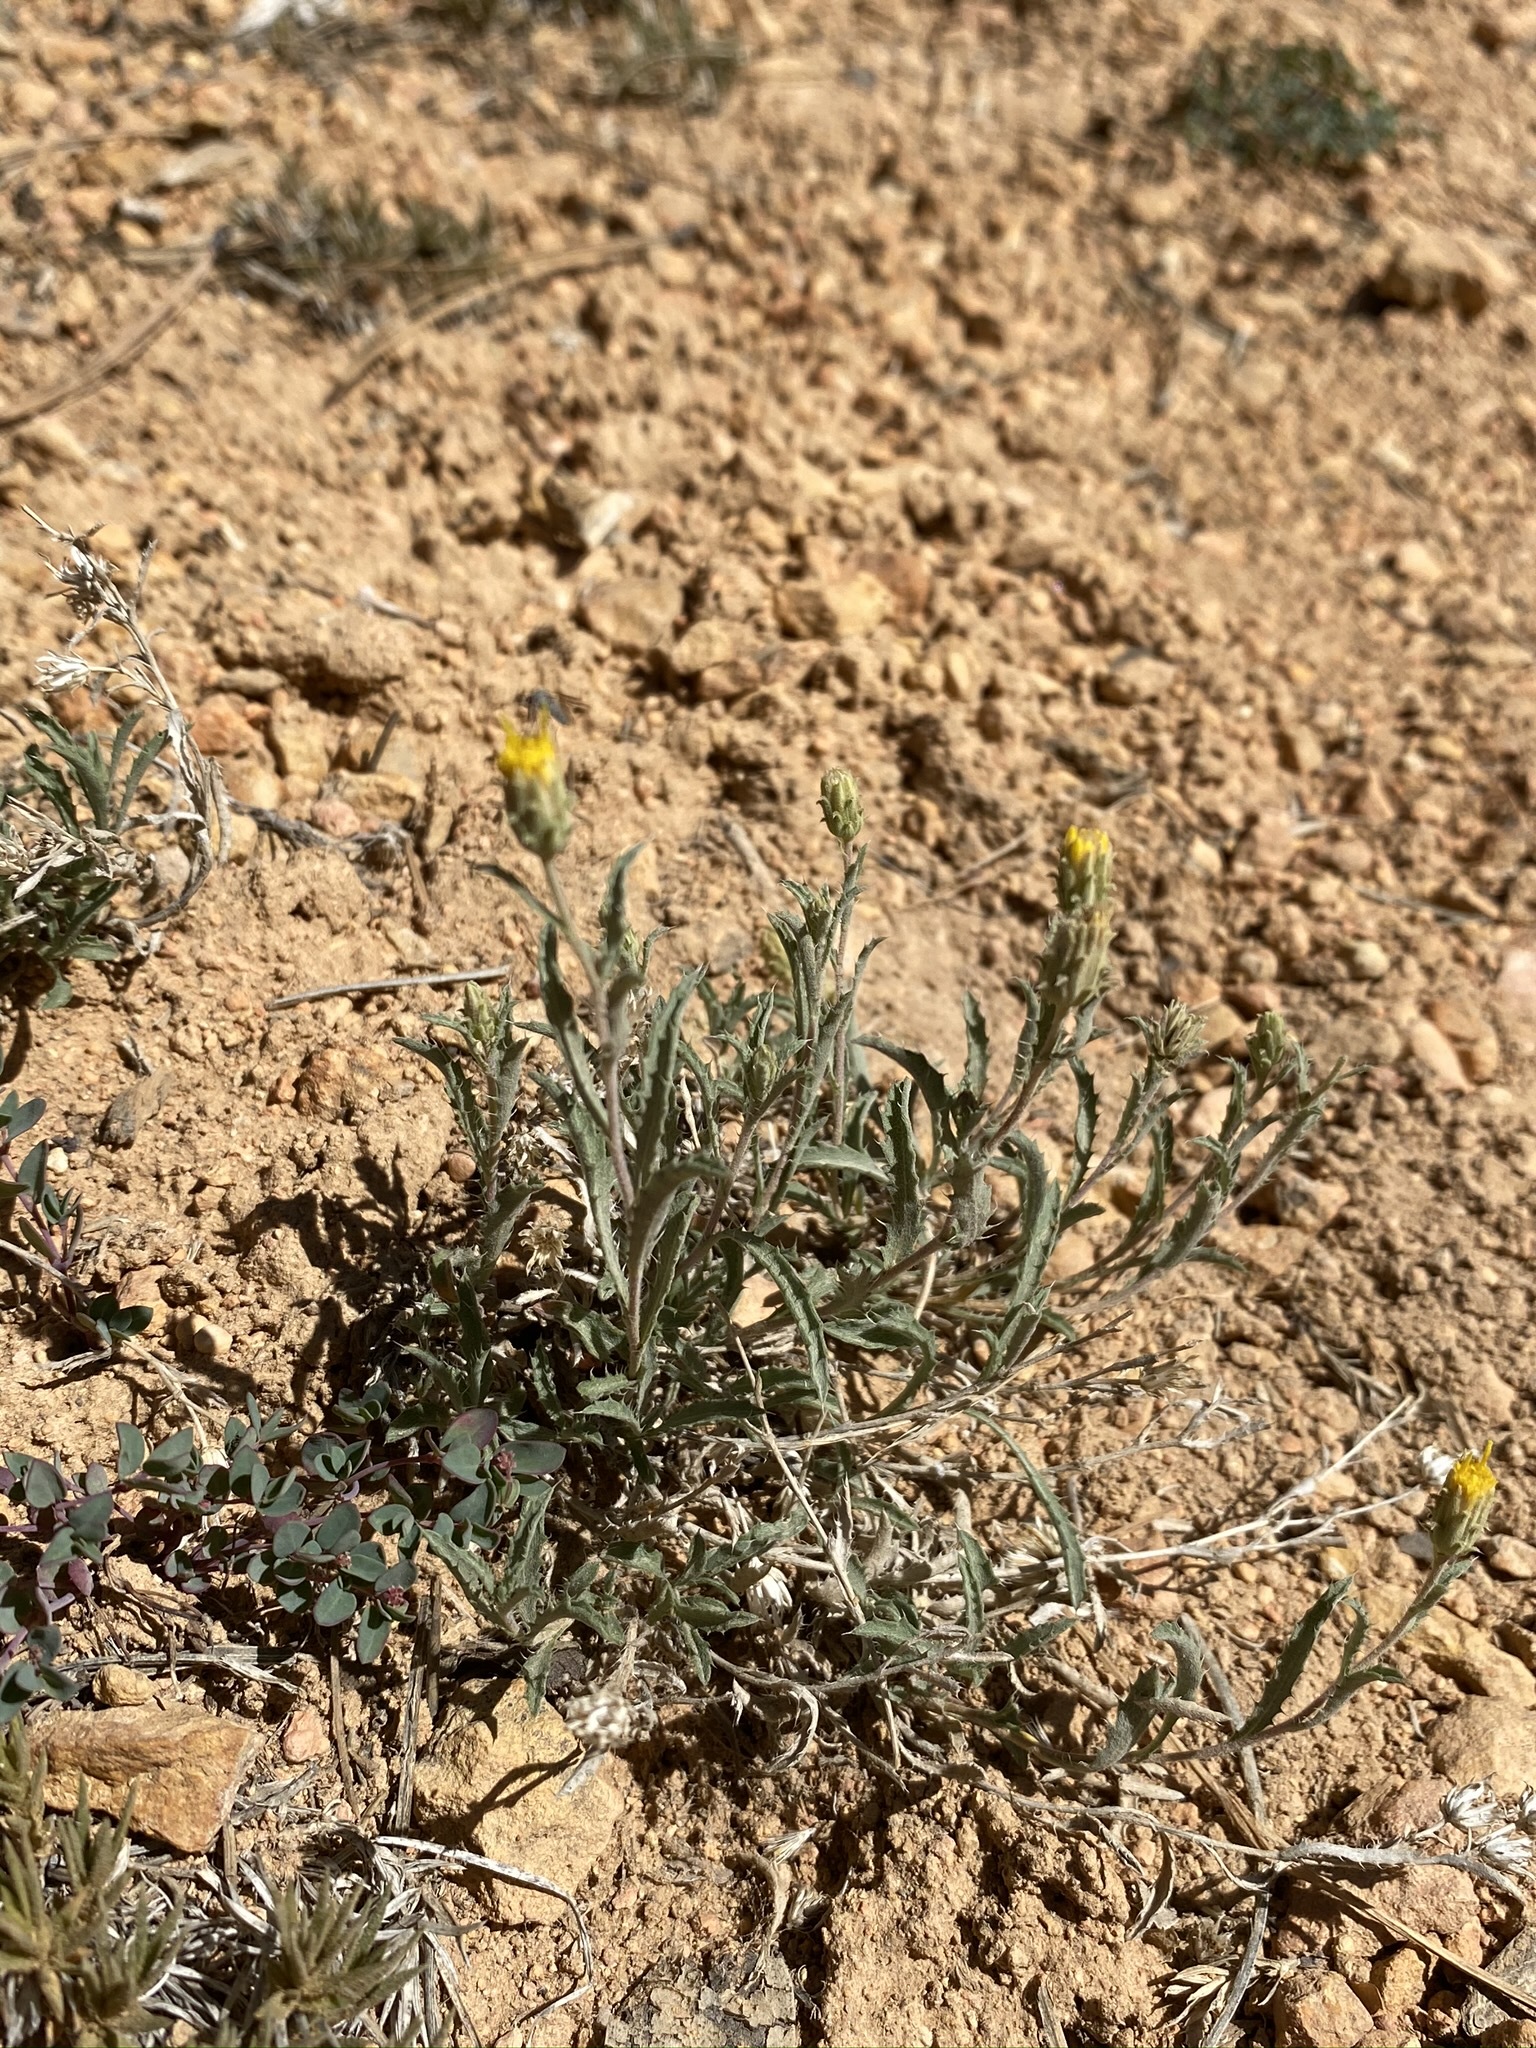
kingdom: Plantae
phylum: Tracheophyta
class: Magnoliopsida
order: Asterales
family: Asteraceae
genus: Xanthisma
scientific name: Xanthisma grindelioides
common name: Goldenweed
